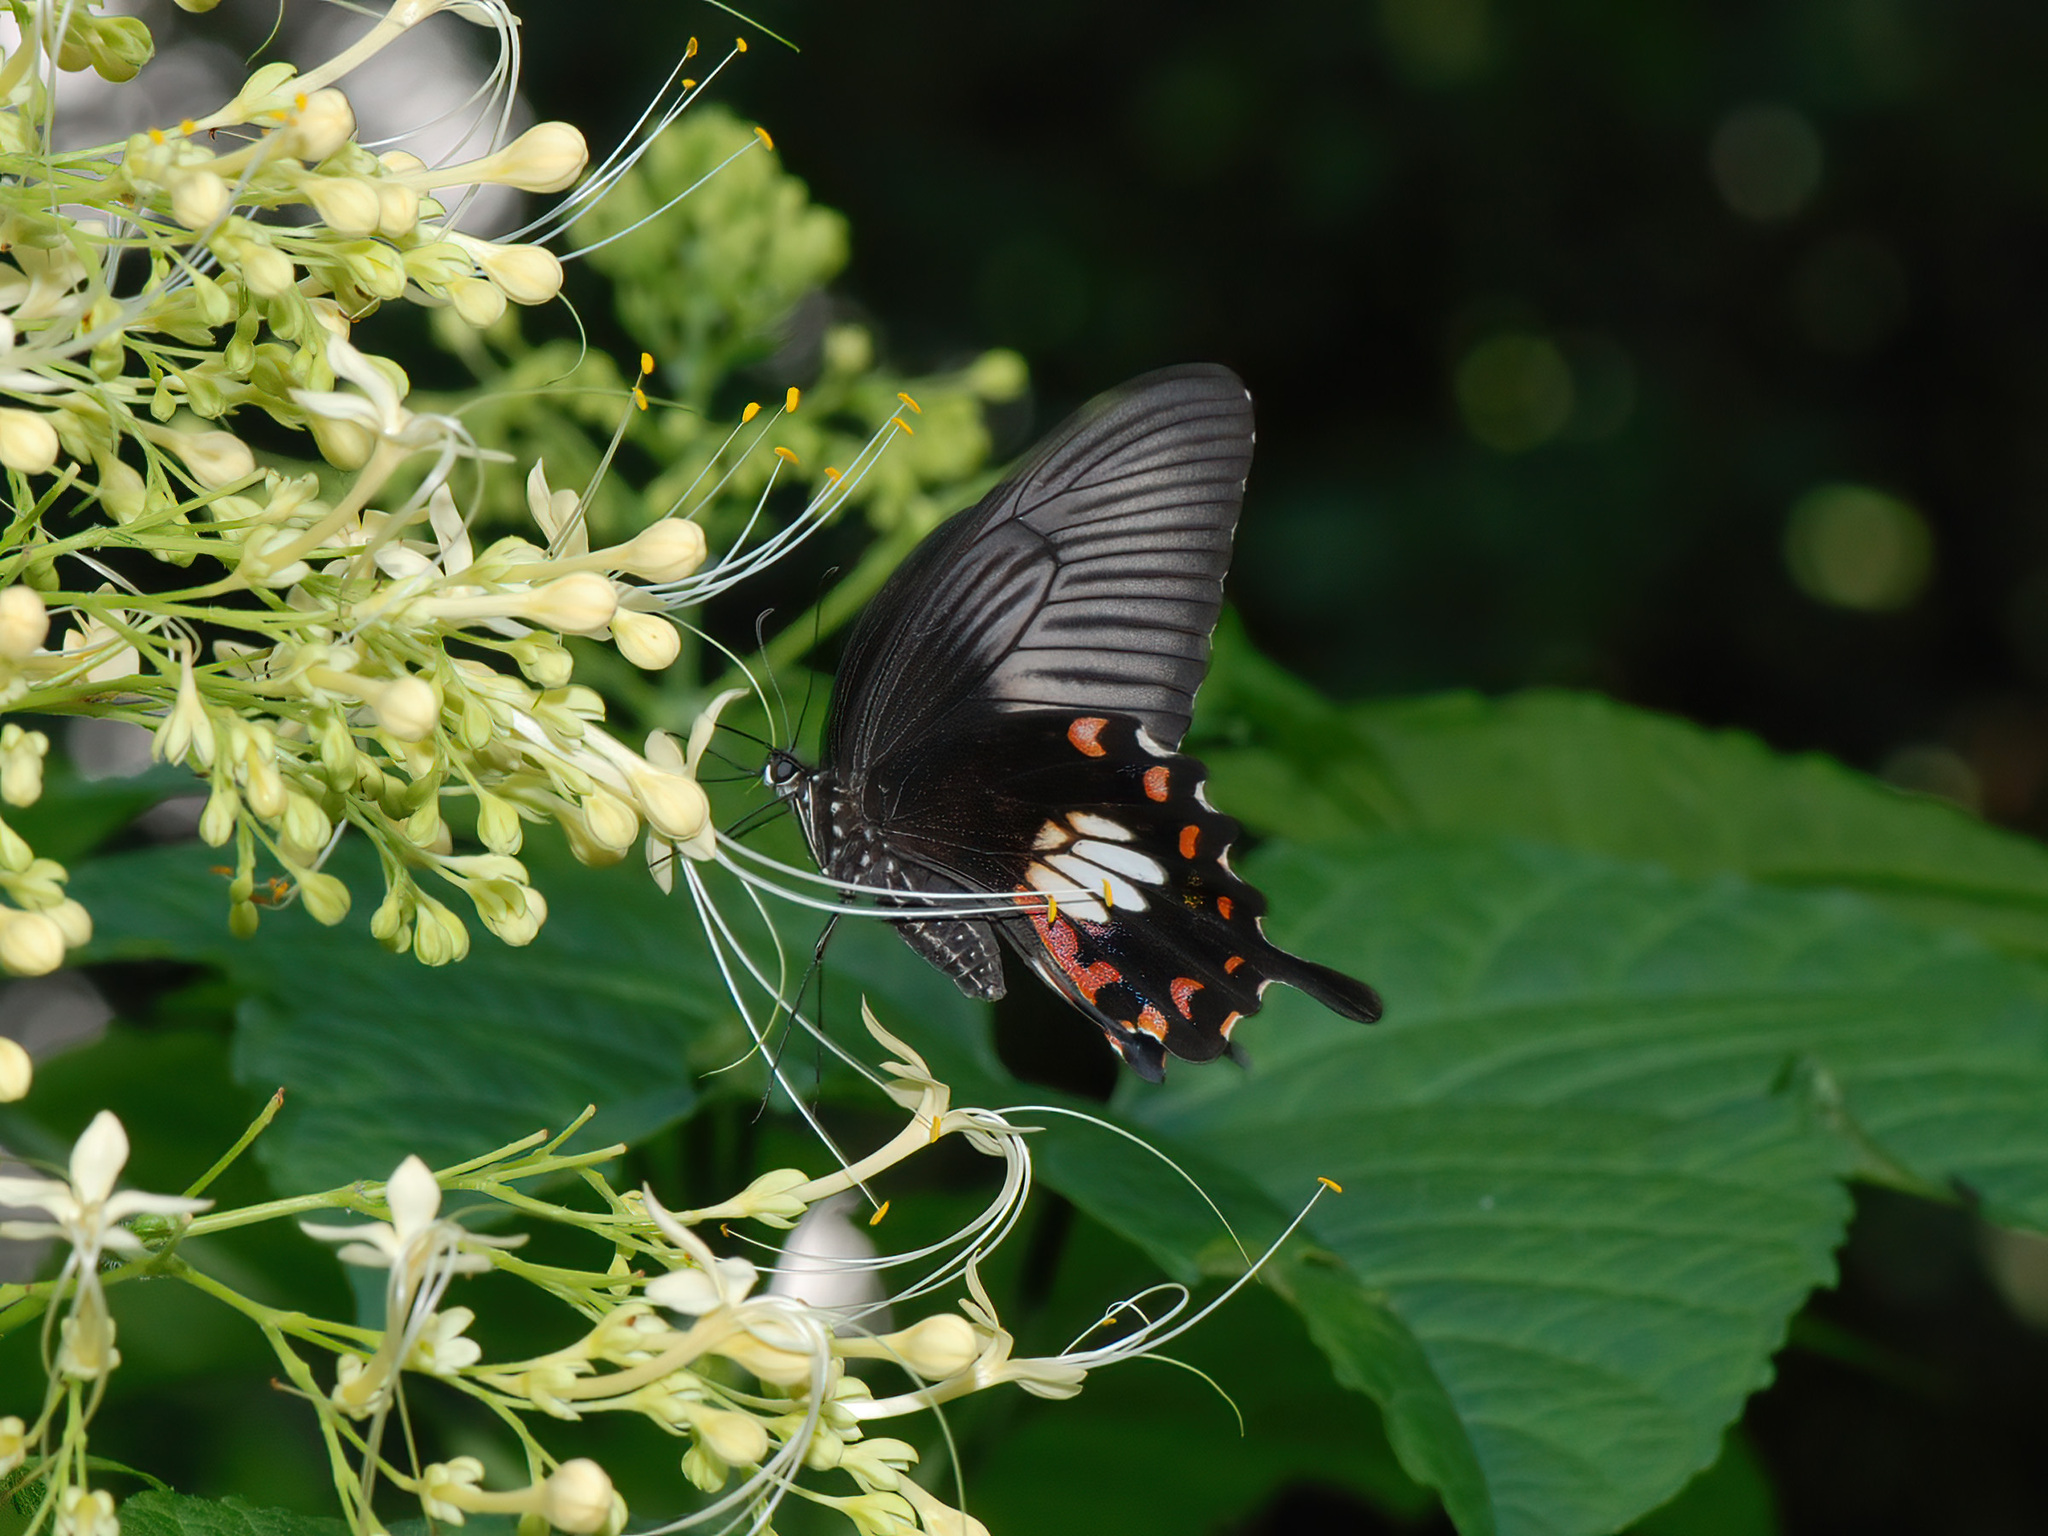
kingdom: Animalia
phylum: Arthropoda
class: Insecta
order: Lepidoptera
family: Papilionidae
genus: Papilio
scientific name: Papilio polytes
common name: Common mormon
